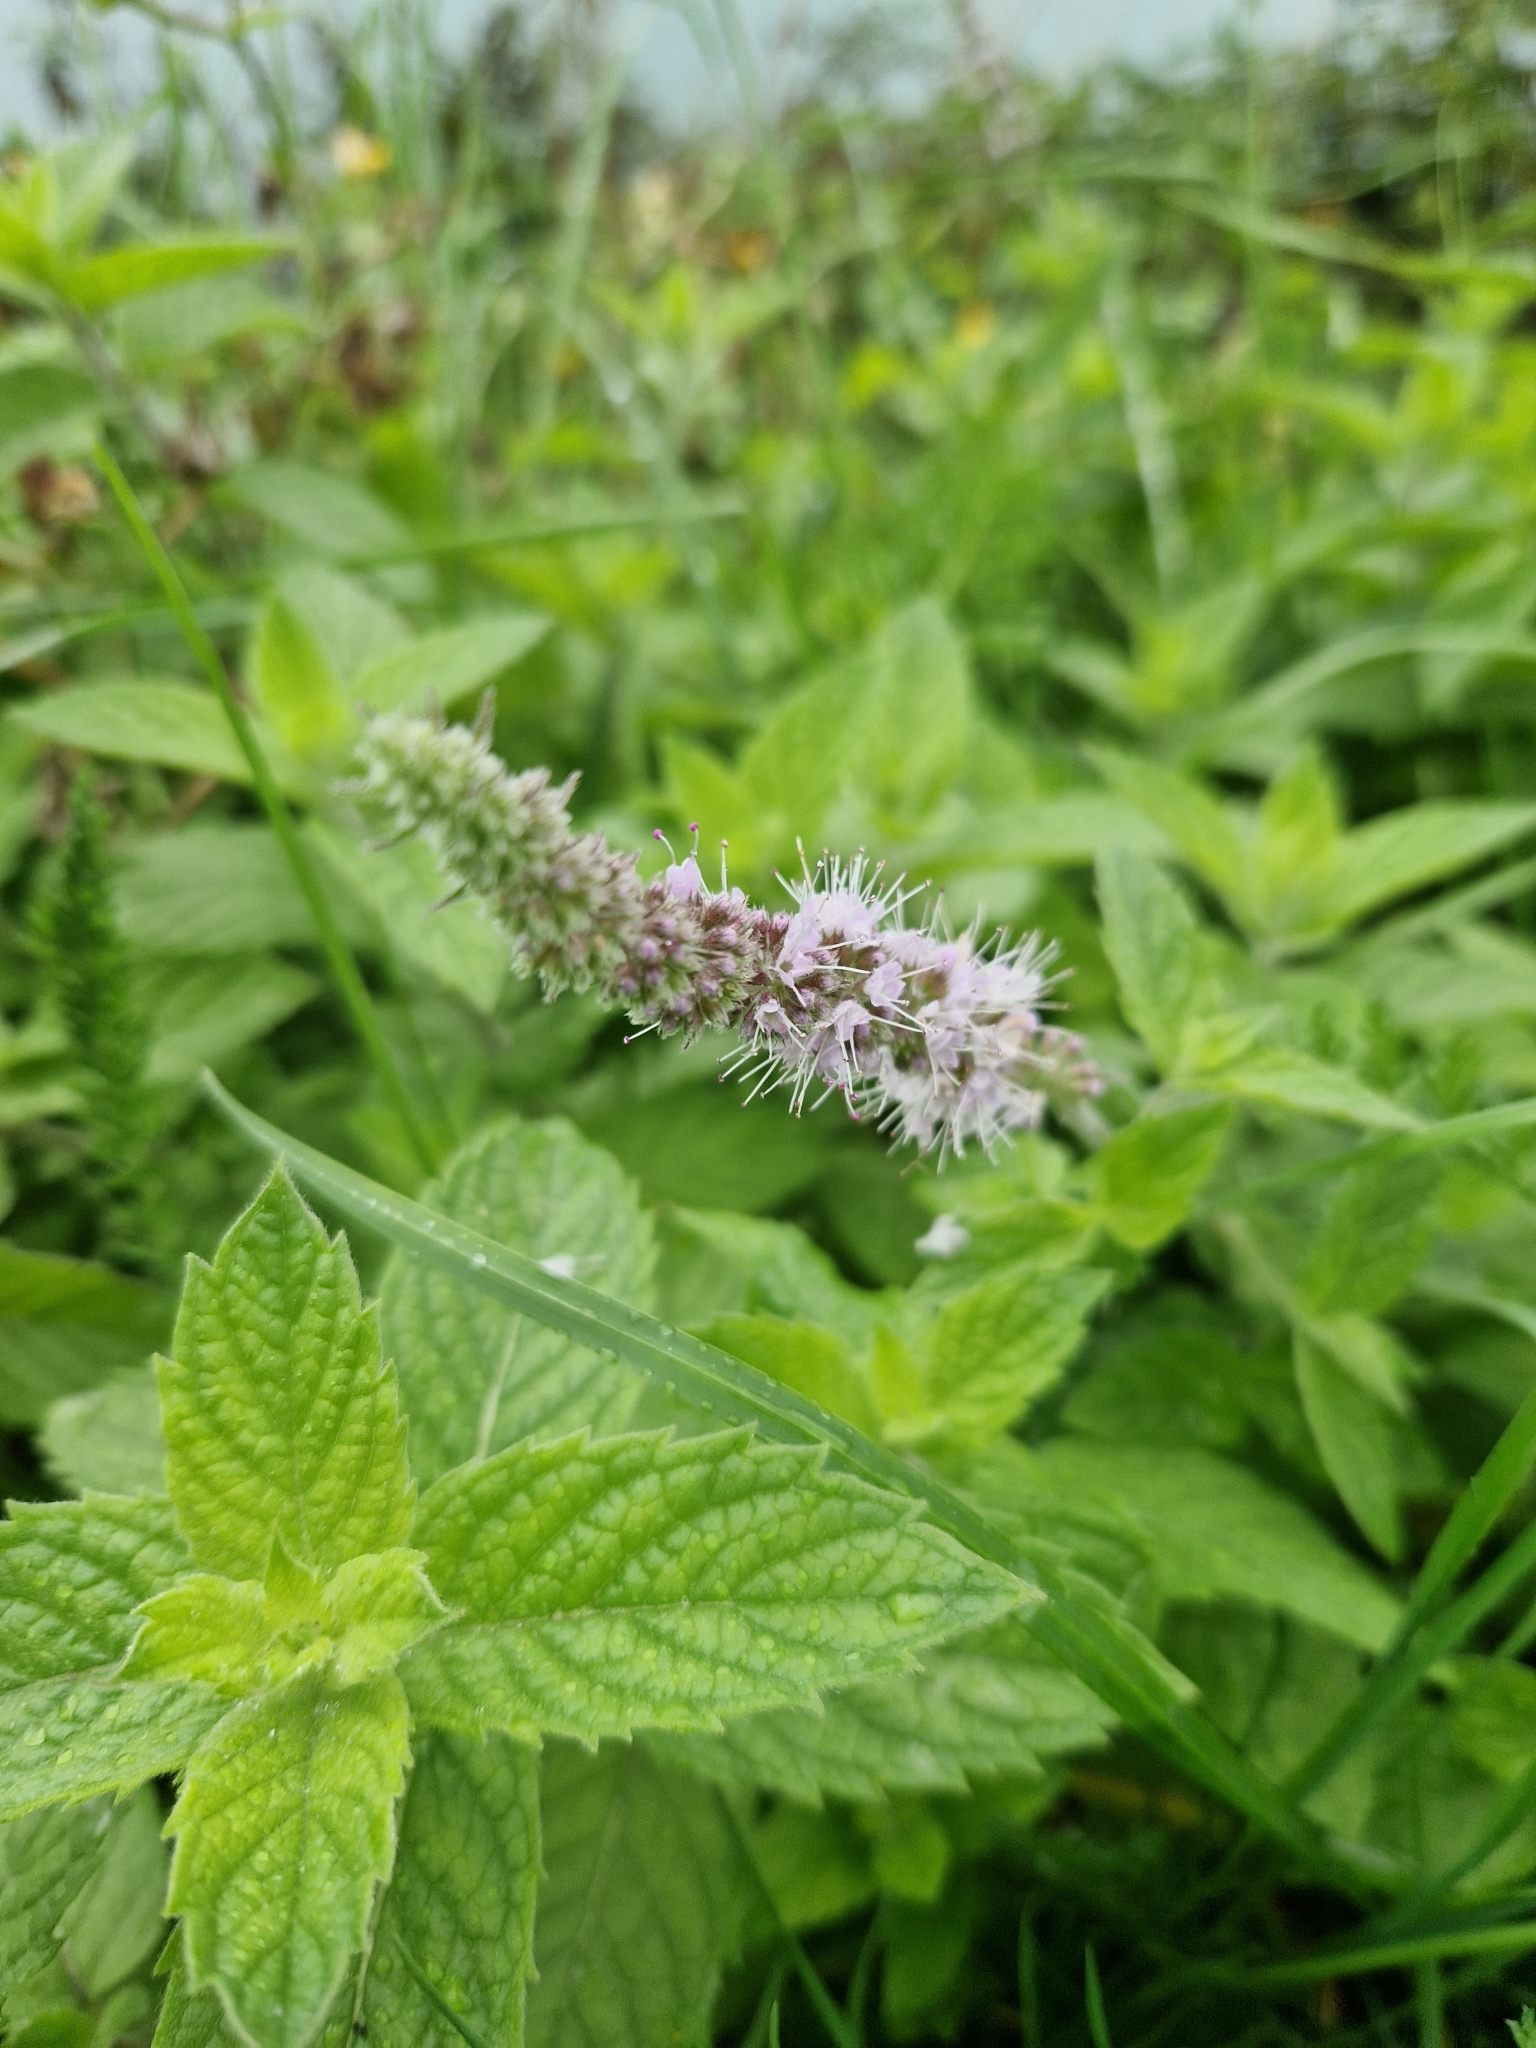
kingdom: Plantae
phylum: Tracheophyta
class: Magnoliopsida
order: Lamiales
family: Lamiaceae
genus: Mentha
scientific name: Mentha spicata
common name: Spearmint
